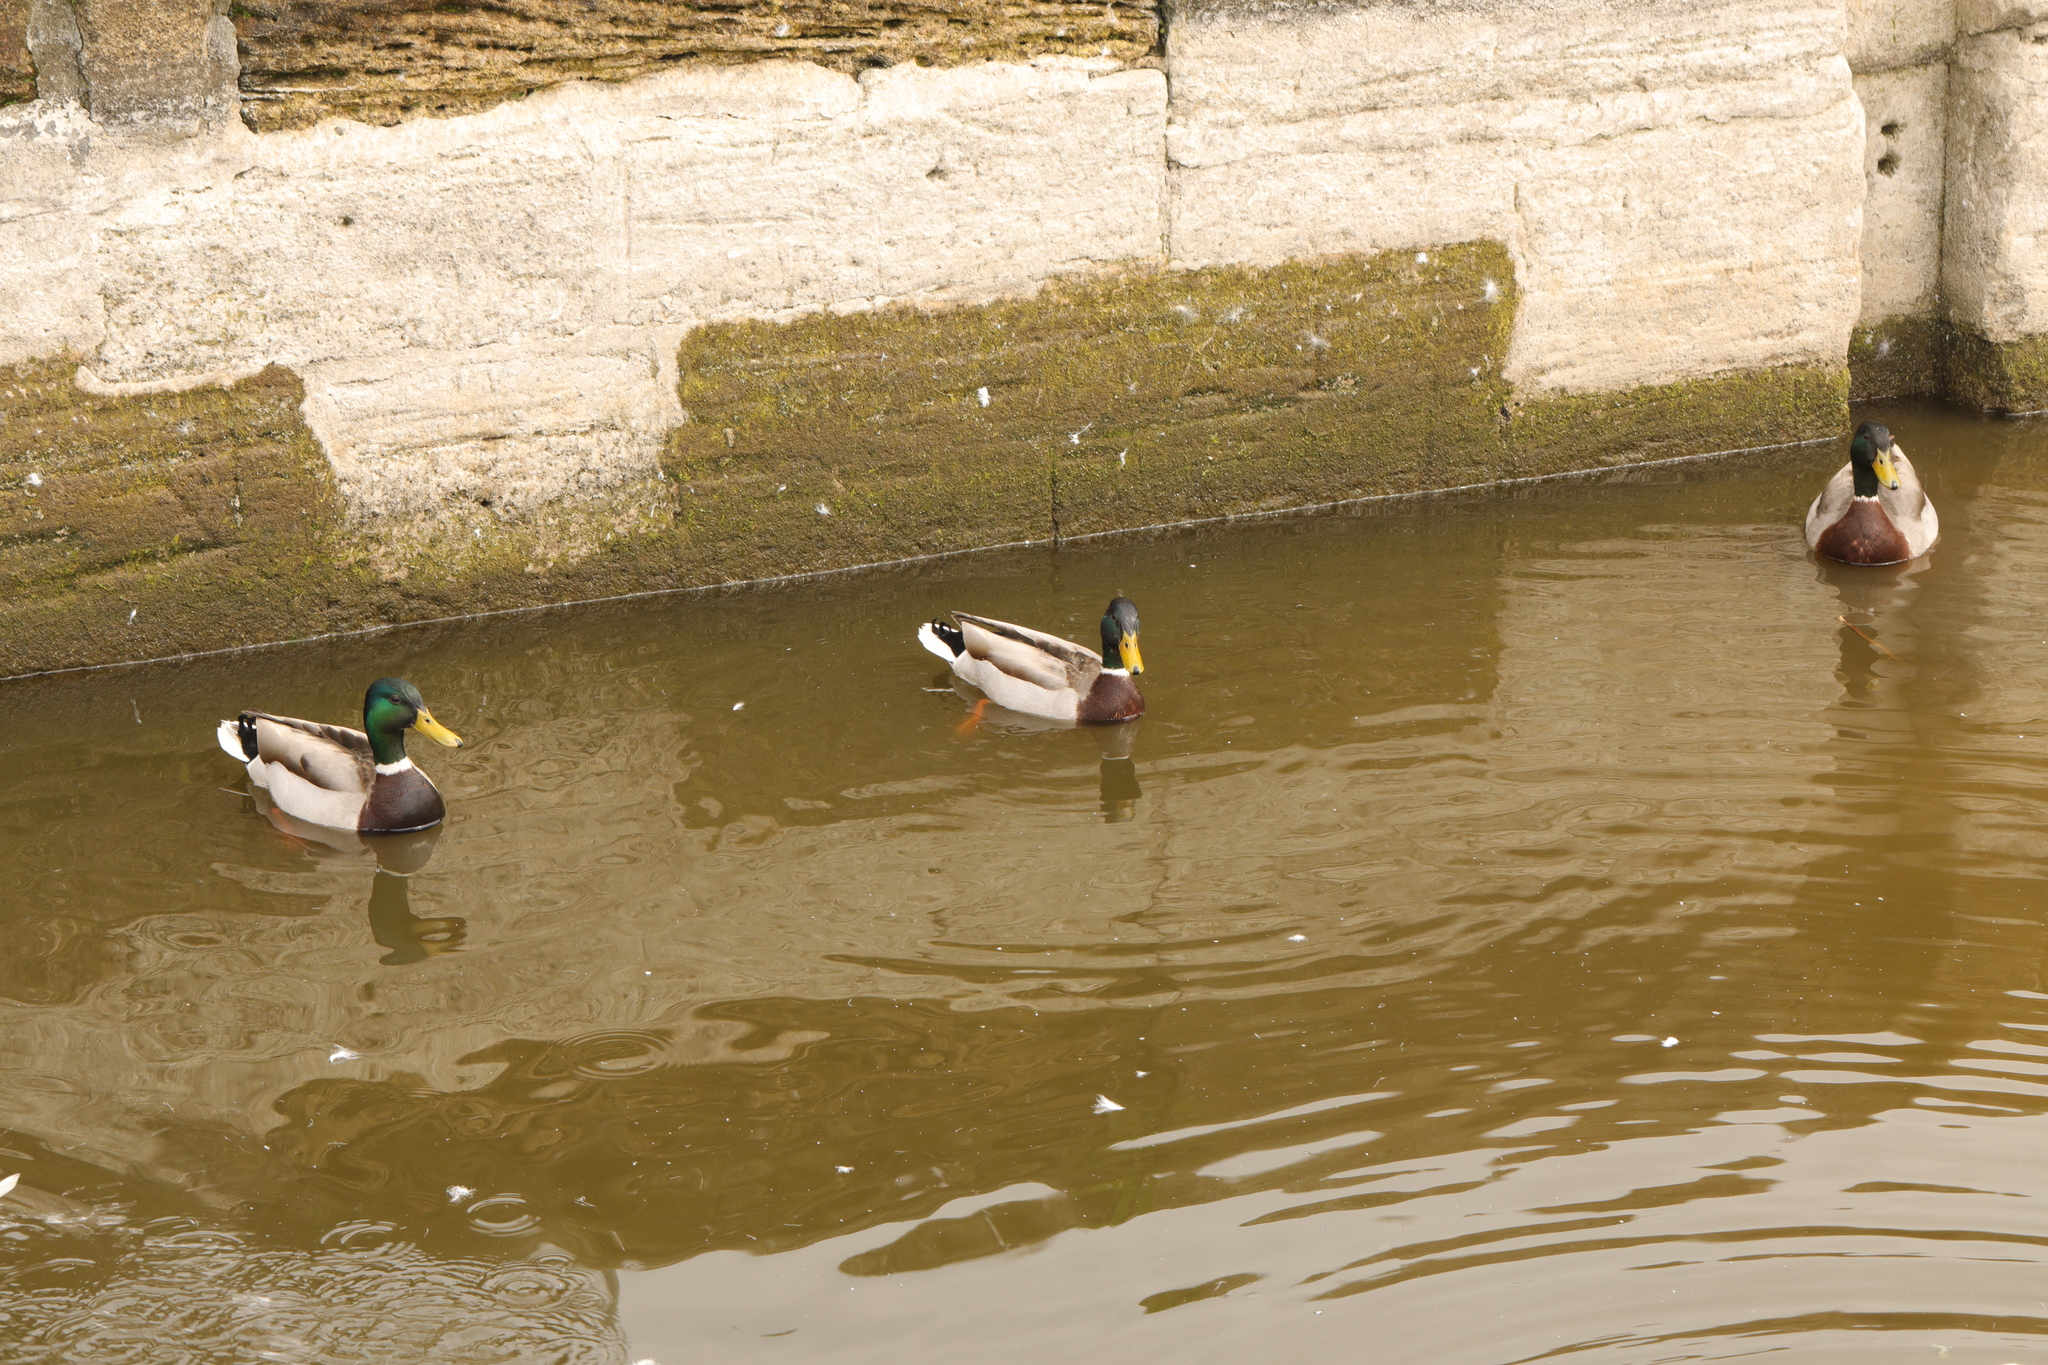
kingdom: Animalia
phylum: Chordata
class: Aves
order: Anseriformes
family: Anatidae
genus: Anas
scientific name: Anas platyrhynchos
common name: Mallard
